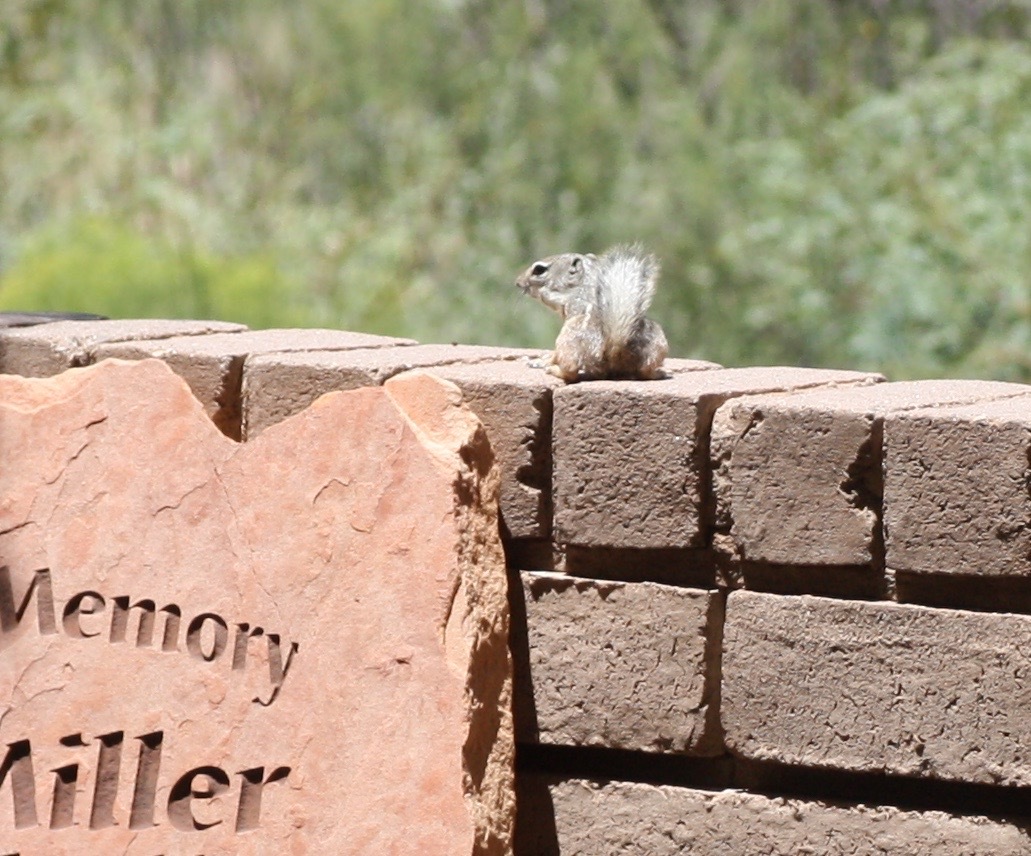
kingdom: Animalia
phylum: Chordata
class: Mammalia
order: Rodentia
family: Sciuridae
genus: Ammospermophilus
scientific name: Ammospermophilus interpres
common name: Texas antelope squirrel
